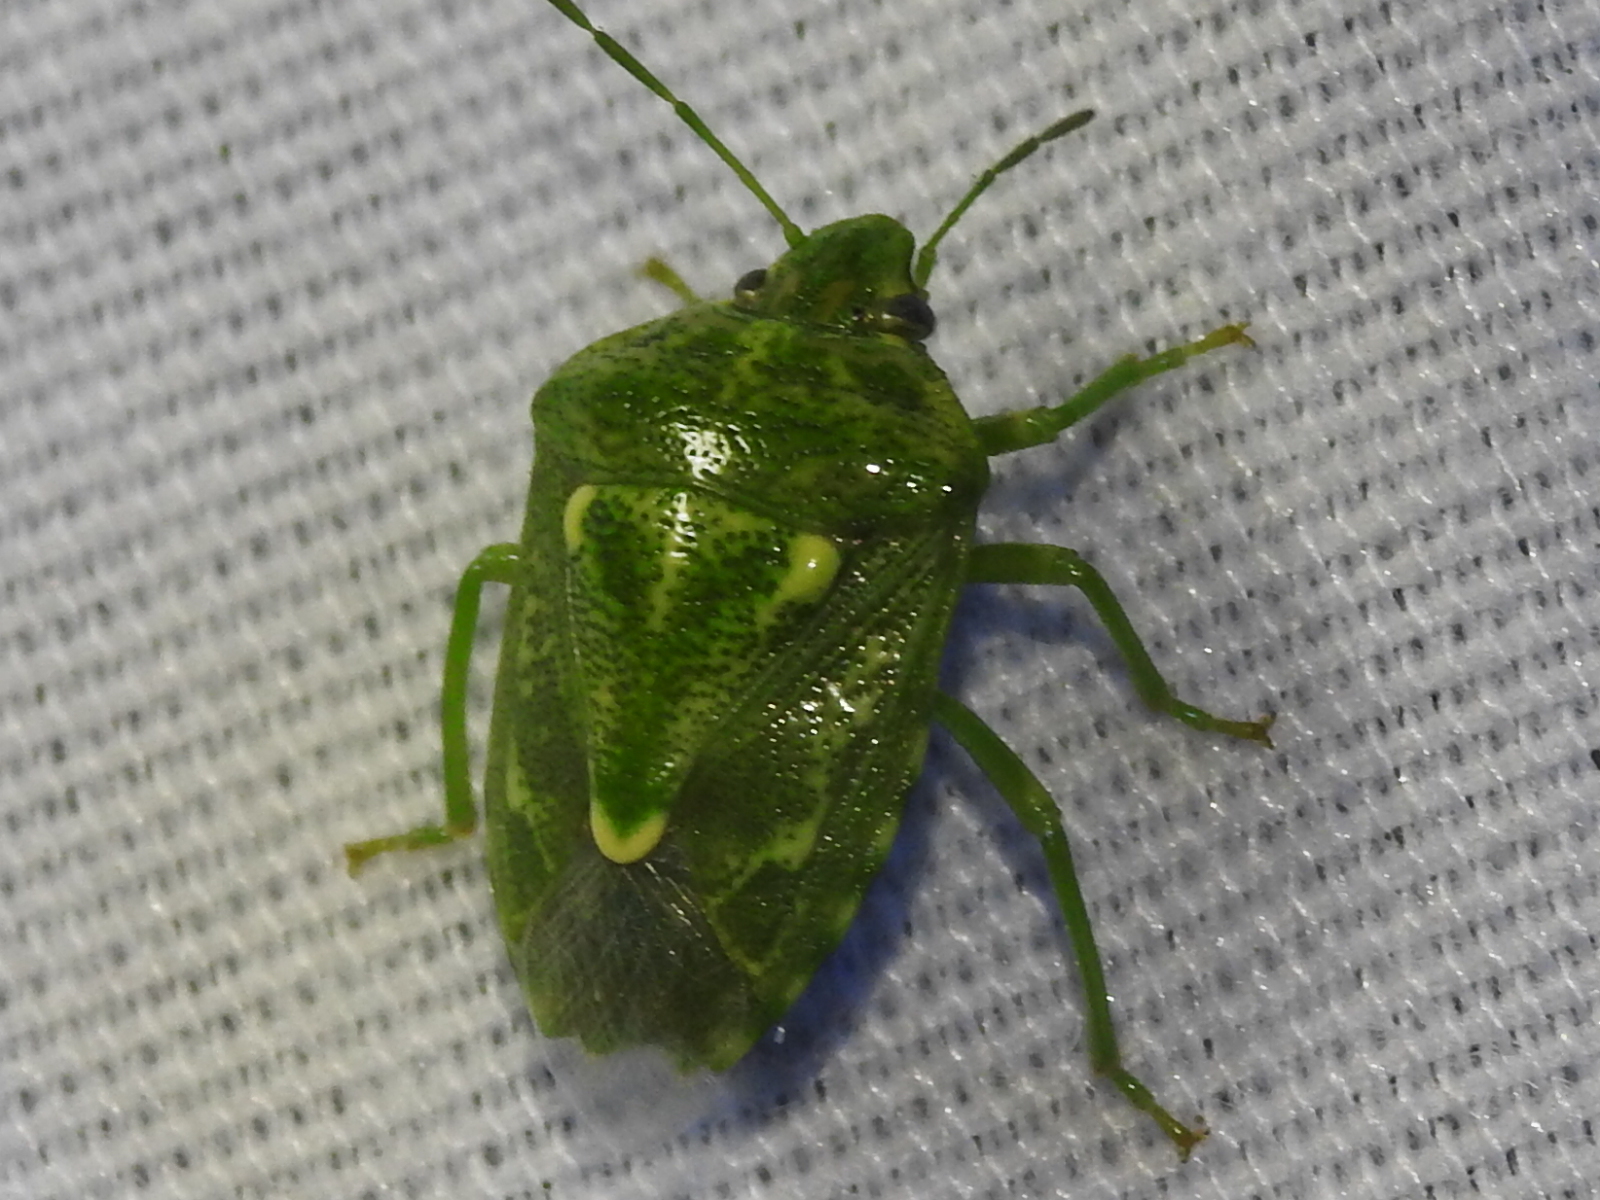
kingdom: Animalia
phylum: Arthropoda
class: Insecta
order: Hemiptera
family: Pentatomidae
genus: Banasa
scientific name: Banasa euchlora
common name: Cedar berry bug
